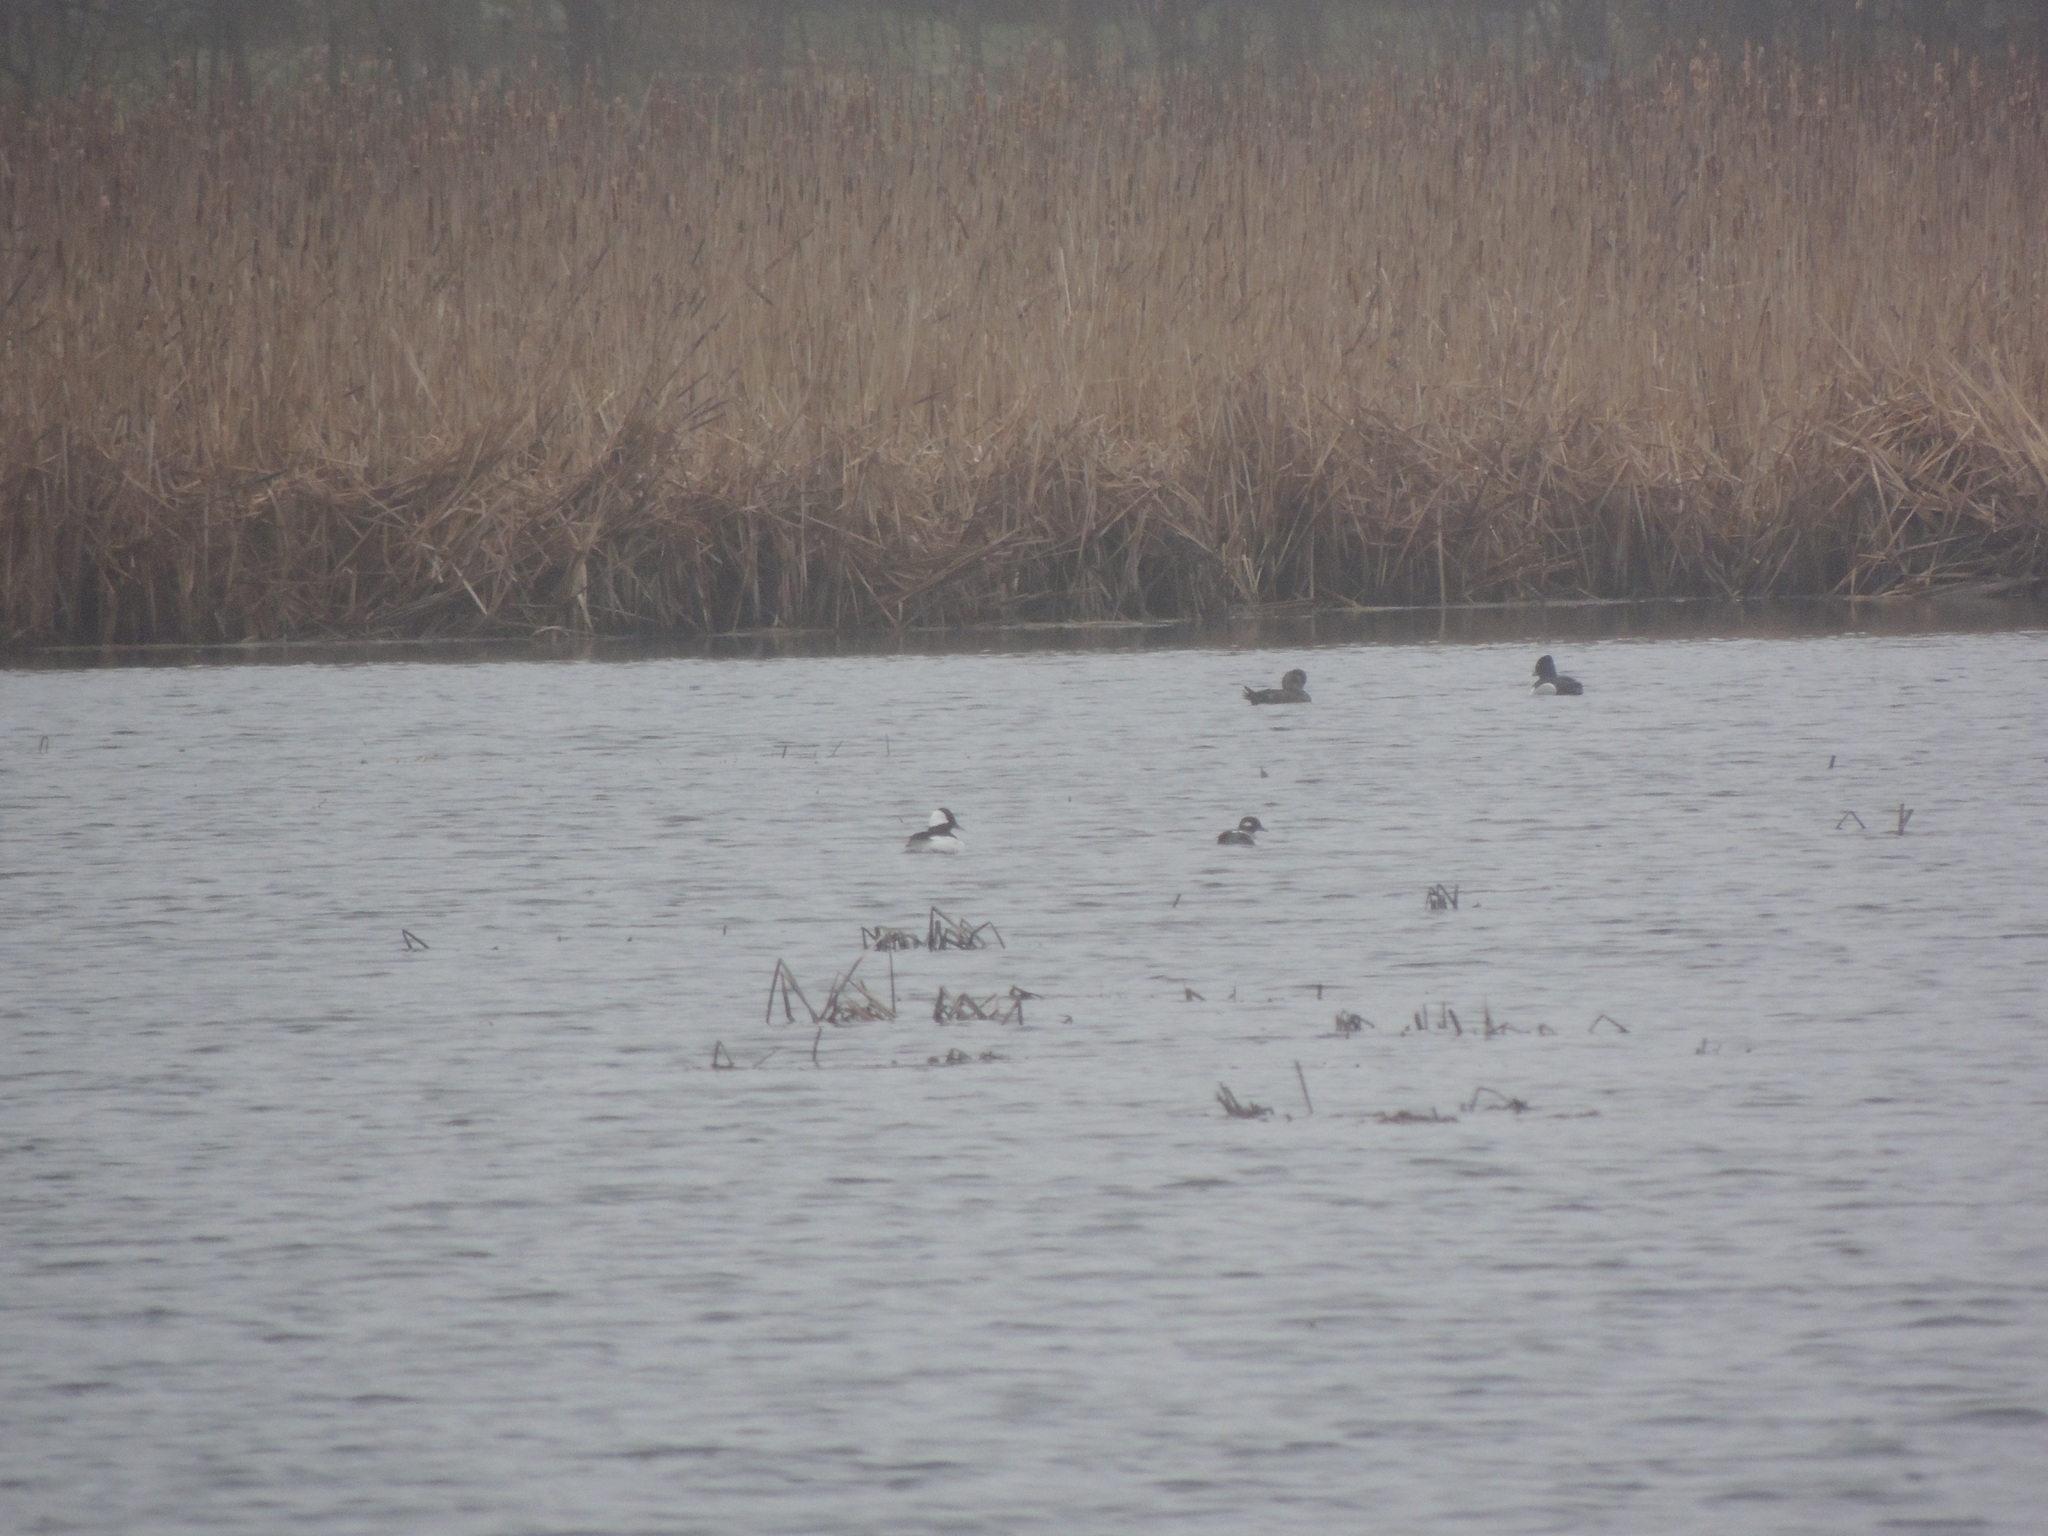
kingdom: Animalia
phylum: Chordata
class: Aves
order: Anseriformes
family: Anatidae
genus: Bucephala
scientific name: Bucephala albeola
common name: Bufflehead
